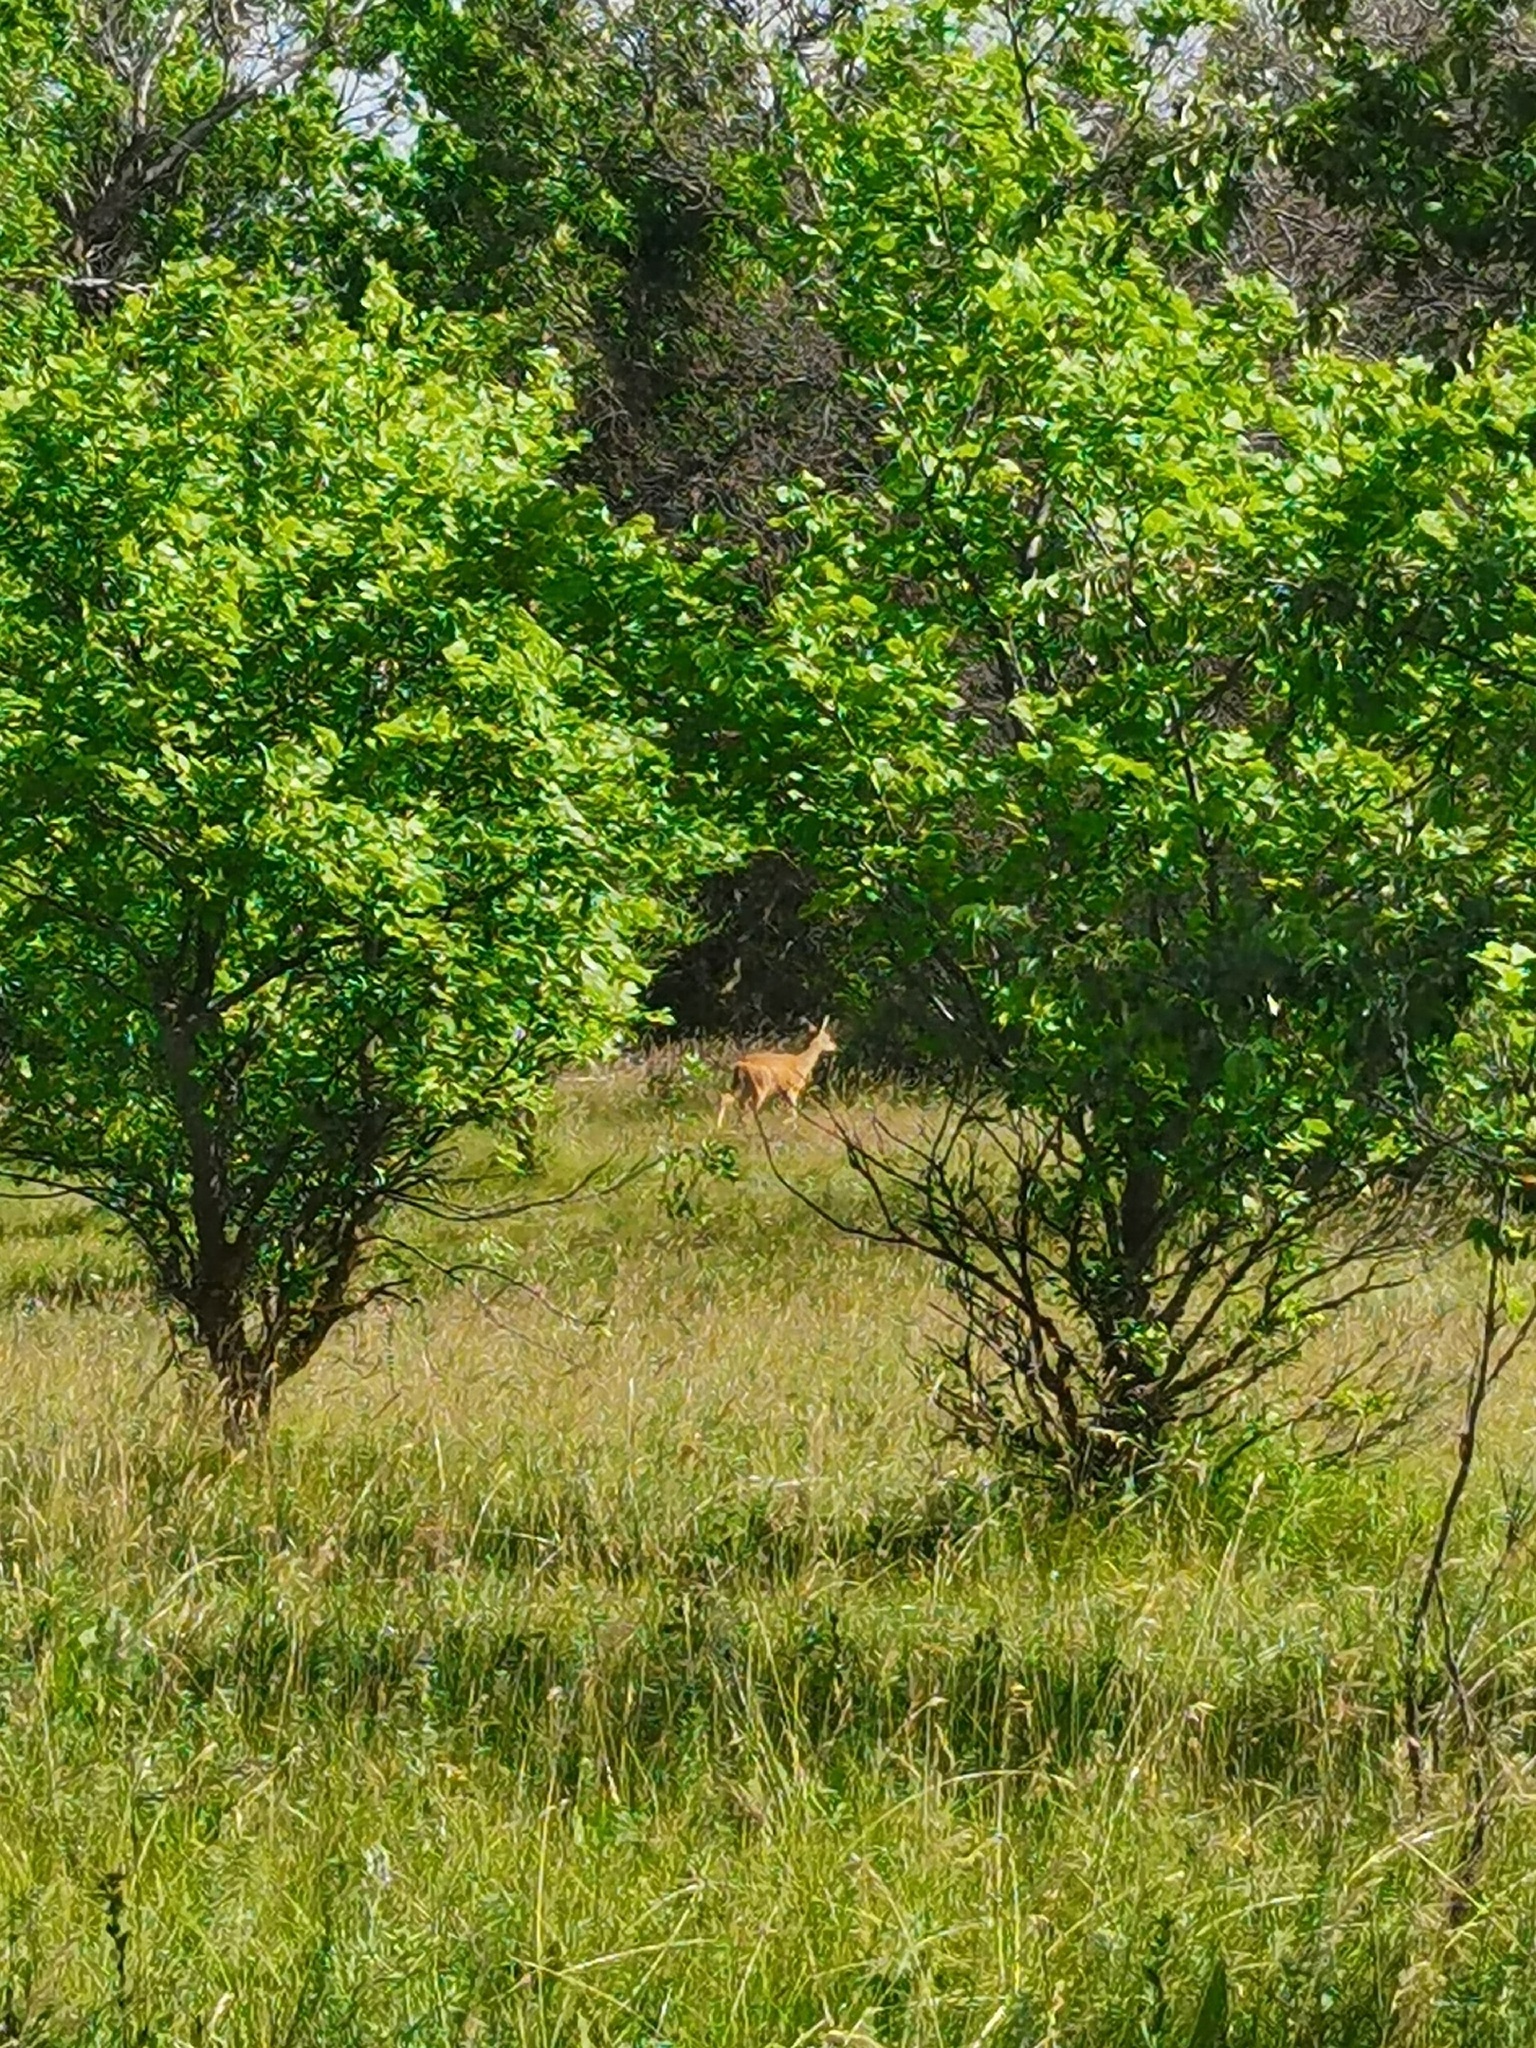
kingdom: Animalia
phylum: Chordata
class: Mammalia
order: Artiodactyla
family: Cervidae
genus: Capreolus
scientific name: Capreolus pygargus
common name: Siberian roe
